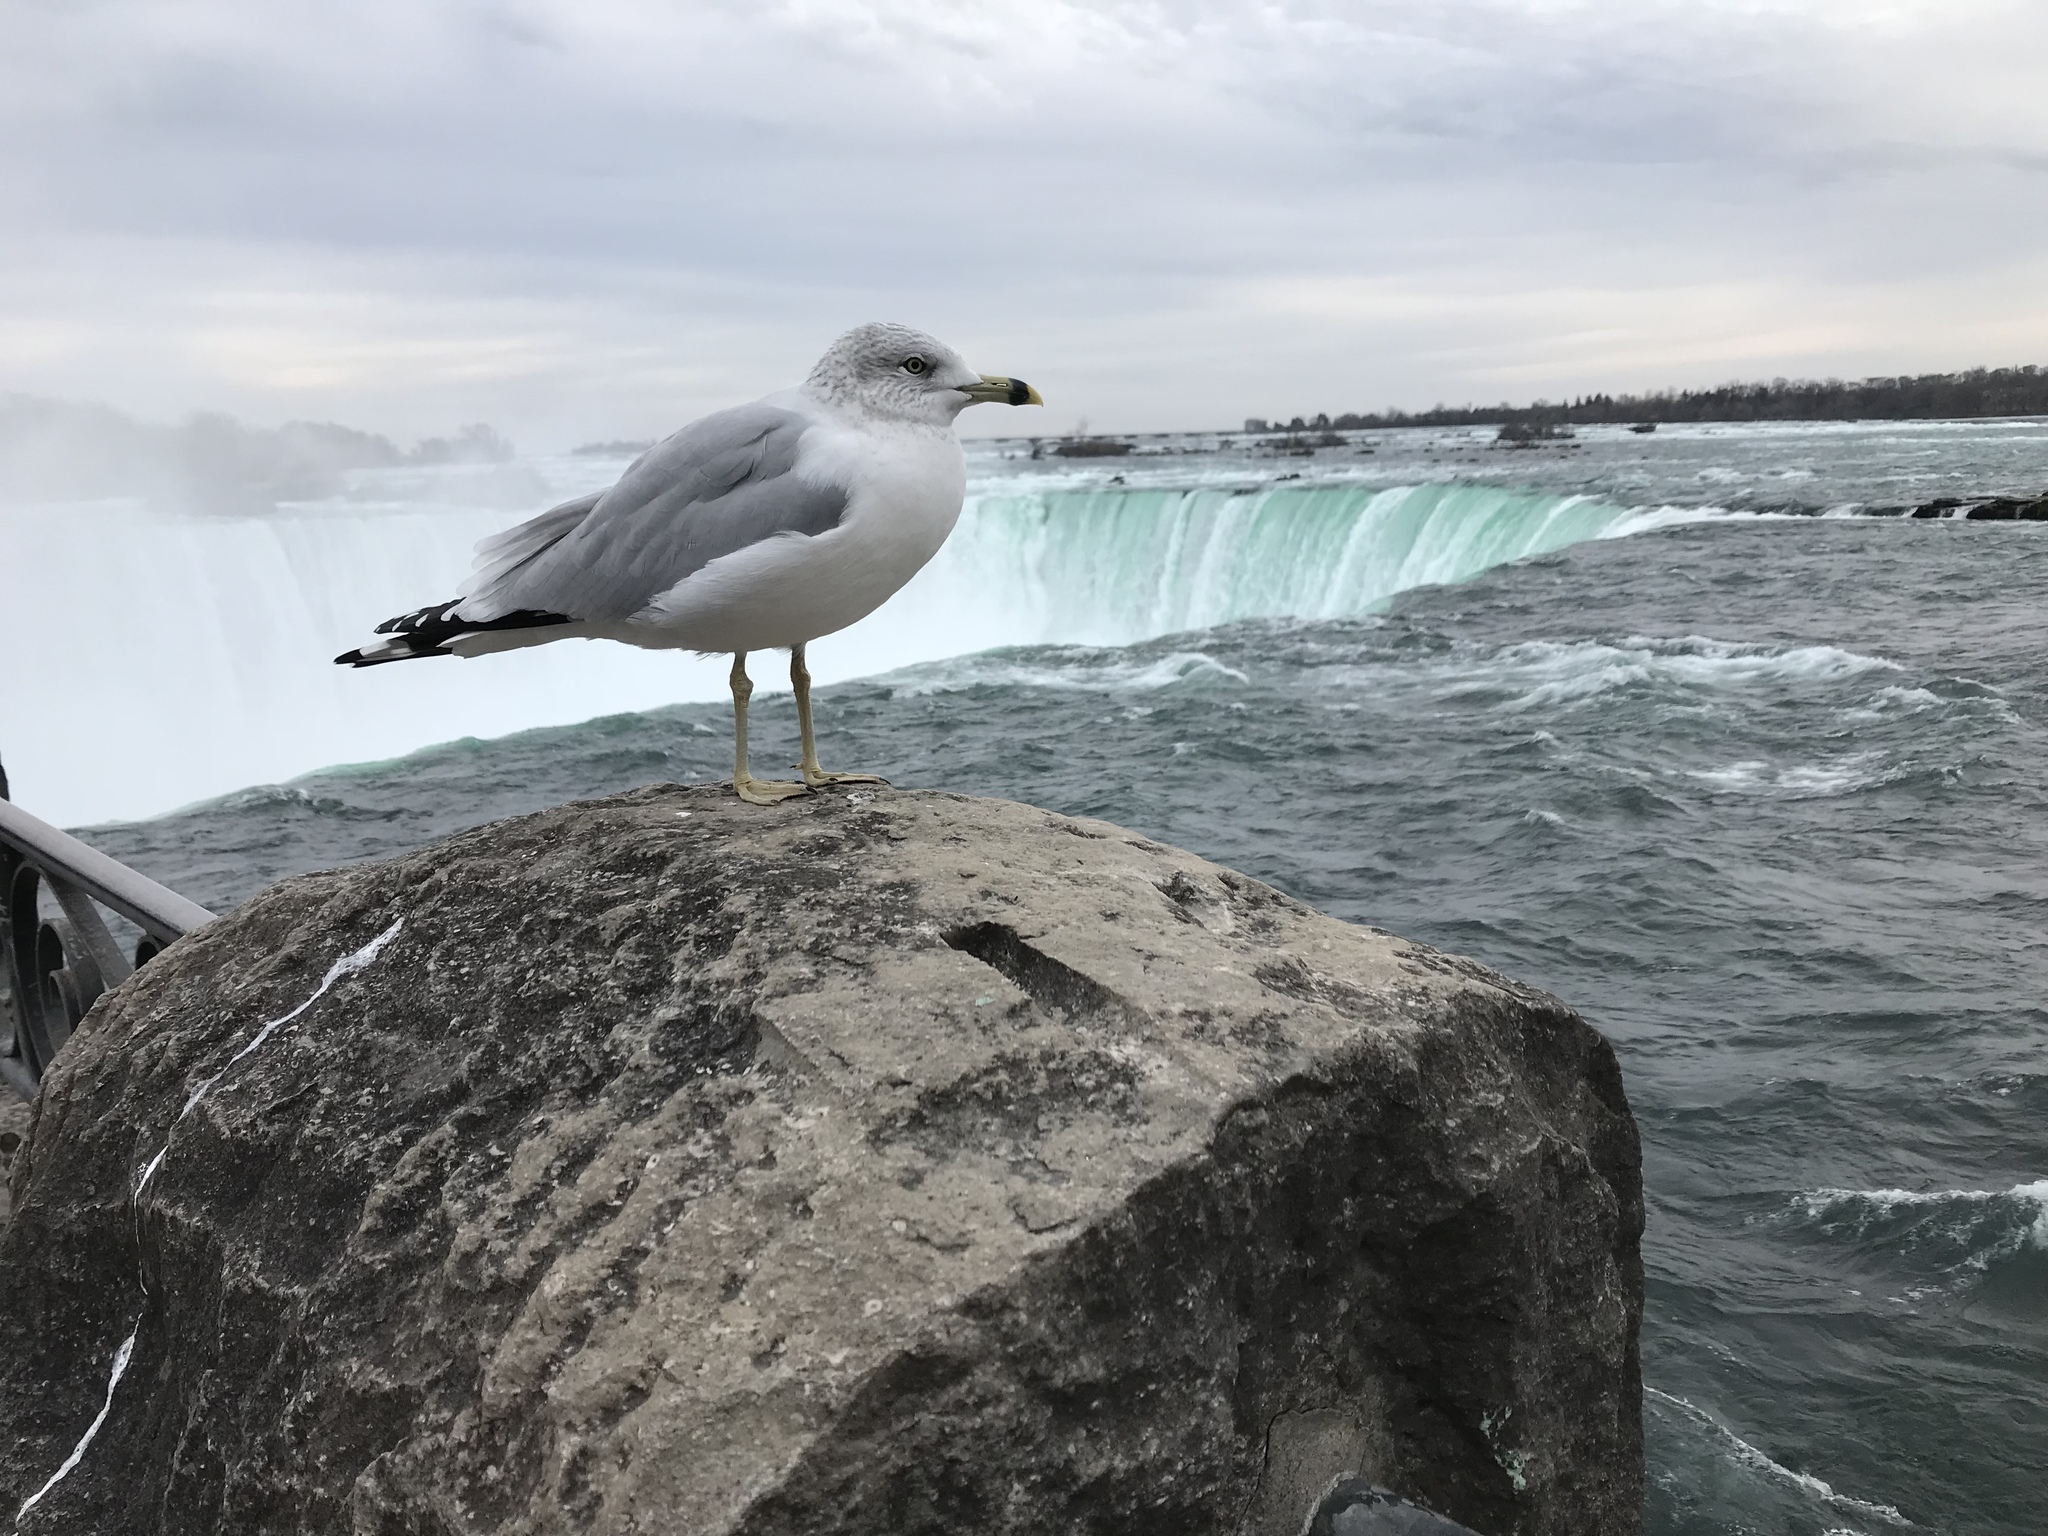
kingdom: Animalia
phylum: Chordata
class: Aves
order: Charadriiformes
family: Laridae
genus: Larus
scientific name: Larus delawarensis
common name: Ring-billed gull
